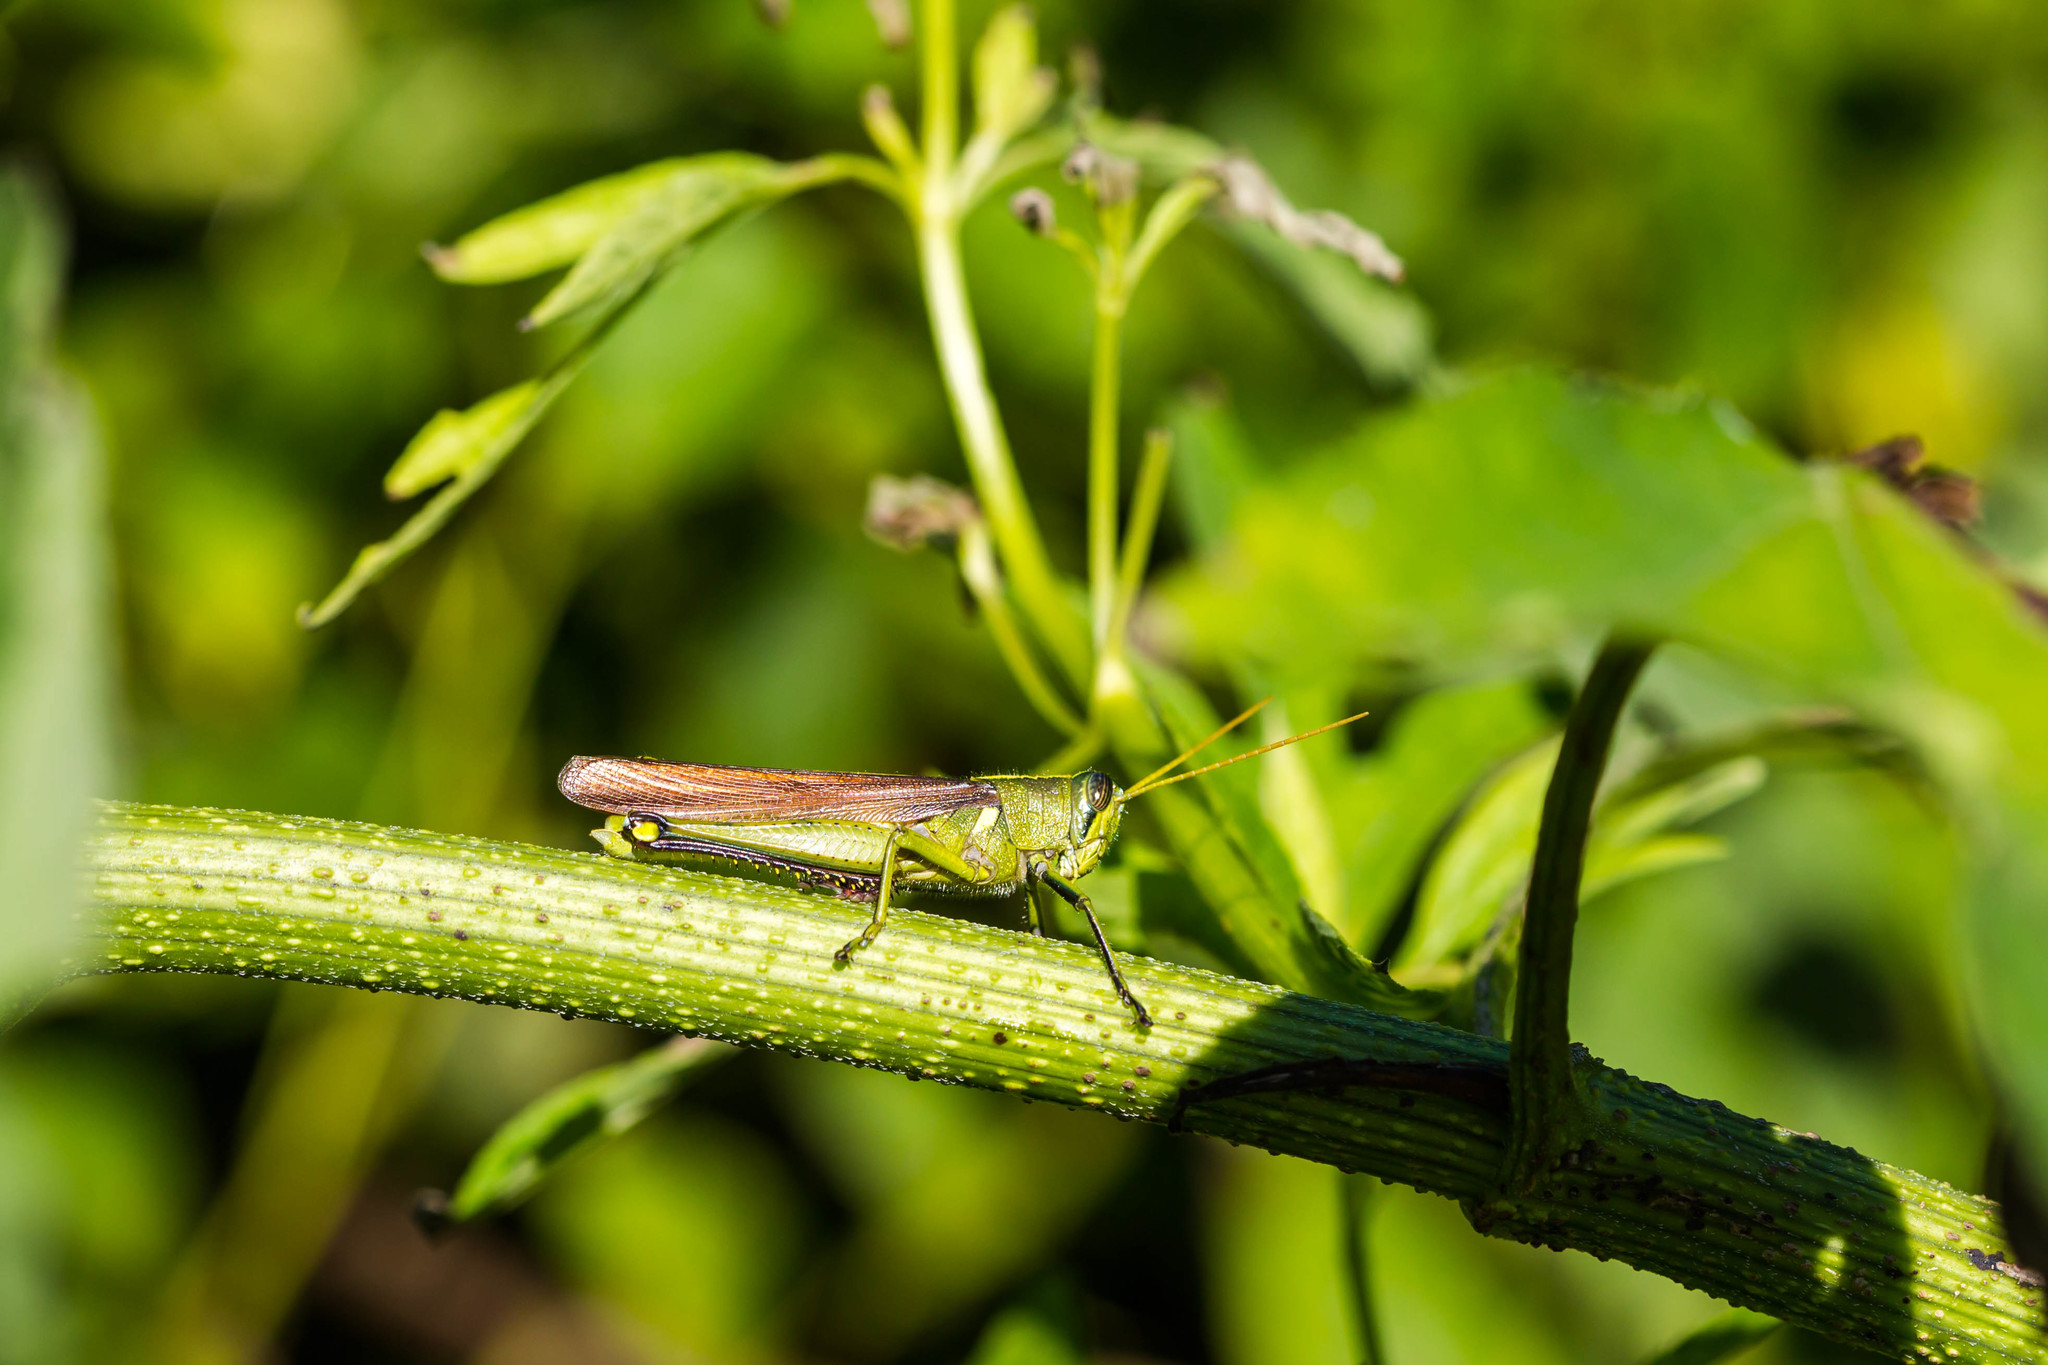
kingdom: Animalia
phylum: Arthropoda
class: Insecta
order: Orthoptera
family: Acrididae
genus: Schistocerca
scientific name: Schistocerca obscura
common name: Obscure bird grasshopper
